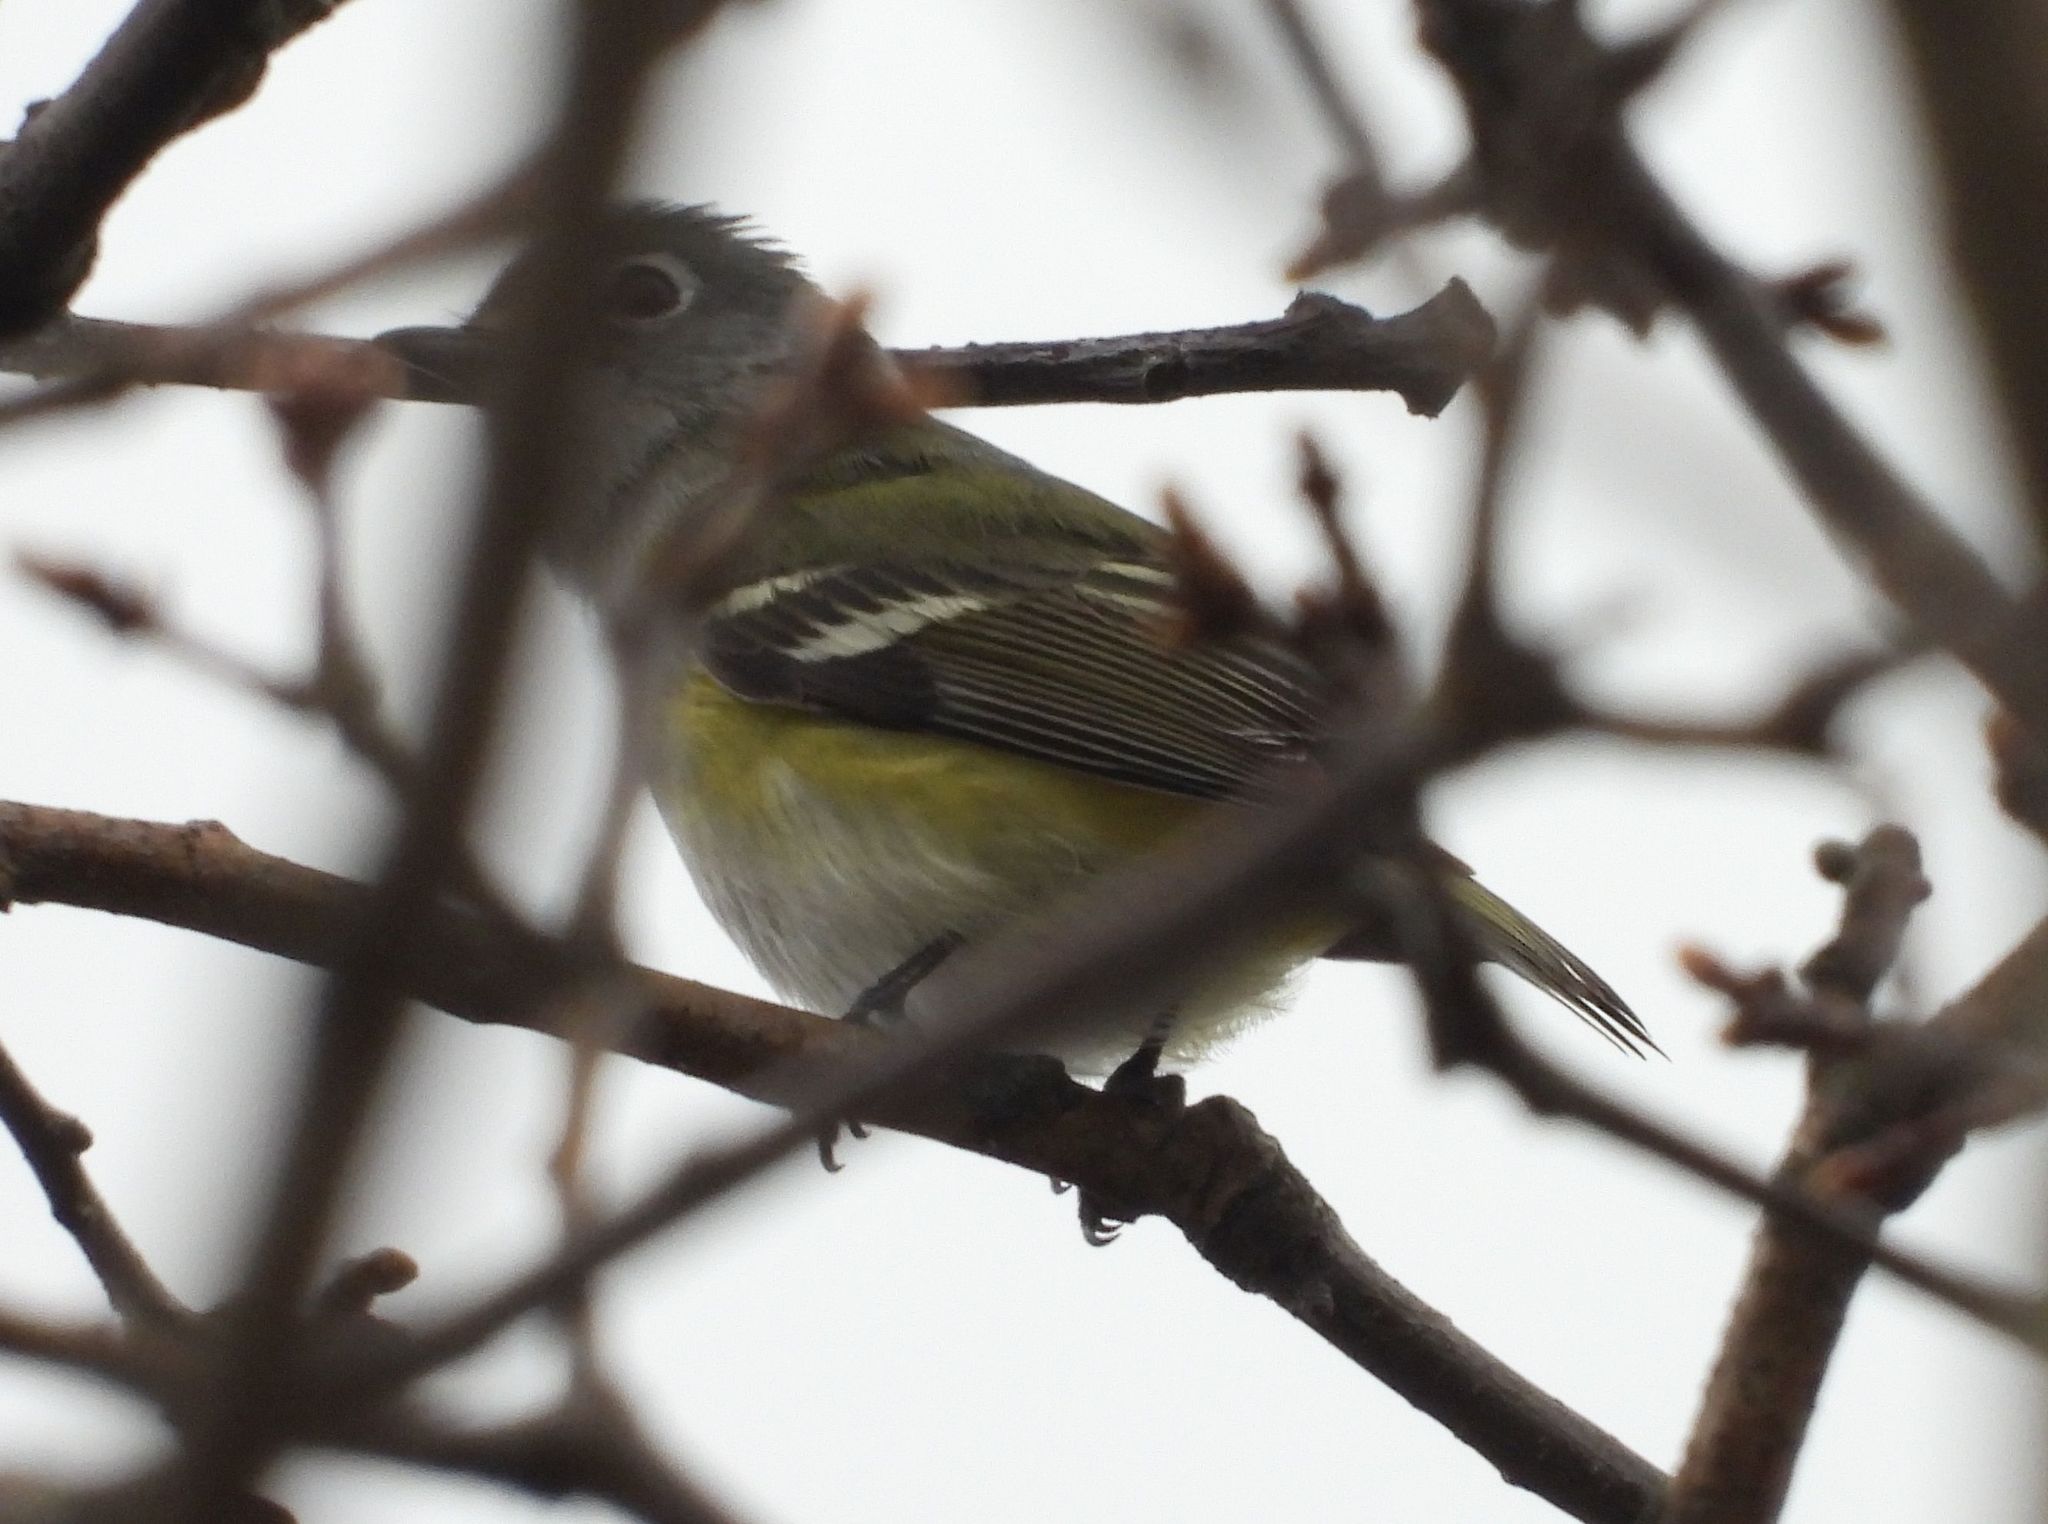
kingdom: Animalia
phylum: Chordata
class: Aves
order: Passeriformes
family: Vireonidae
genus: Vireo
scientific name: Vireo solitarius
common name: Blue-headed vireo
